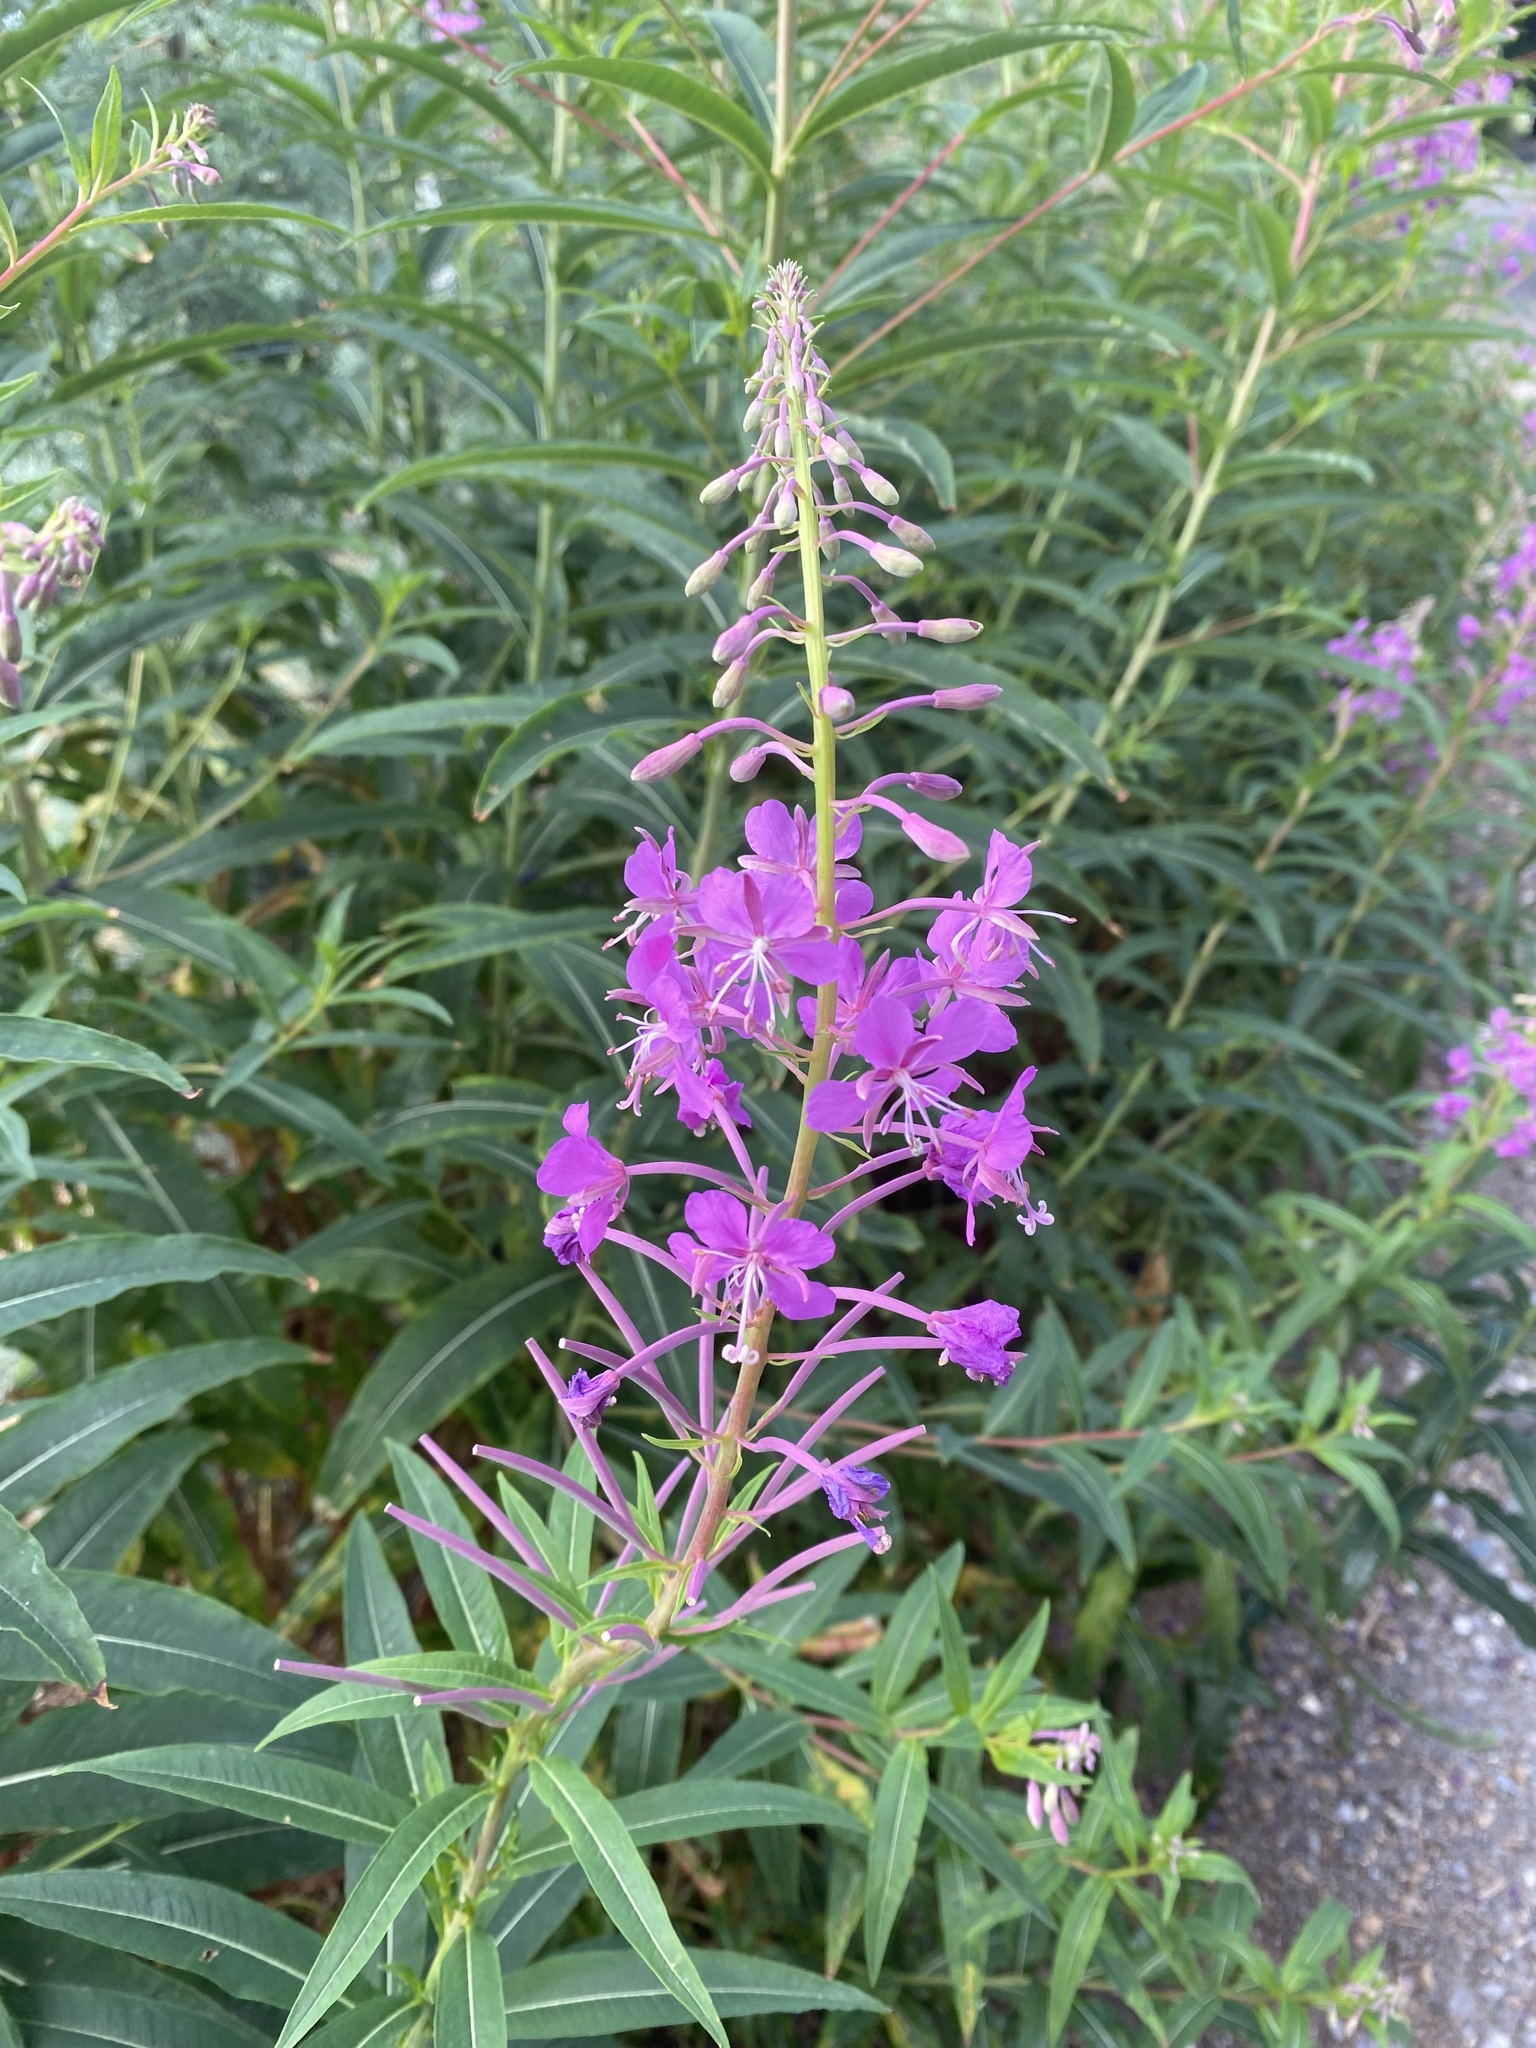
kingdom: Plantae
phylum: Tracheophyta
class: Magnoliopsida
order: Myrtales
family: Onagraceae
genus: Chamaenerion
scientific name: Chamaenerion angustifolium
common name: Fireweed
